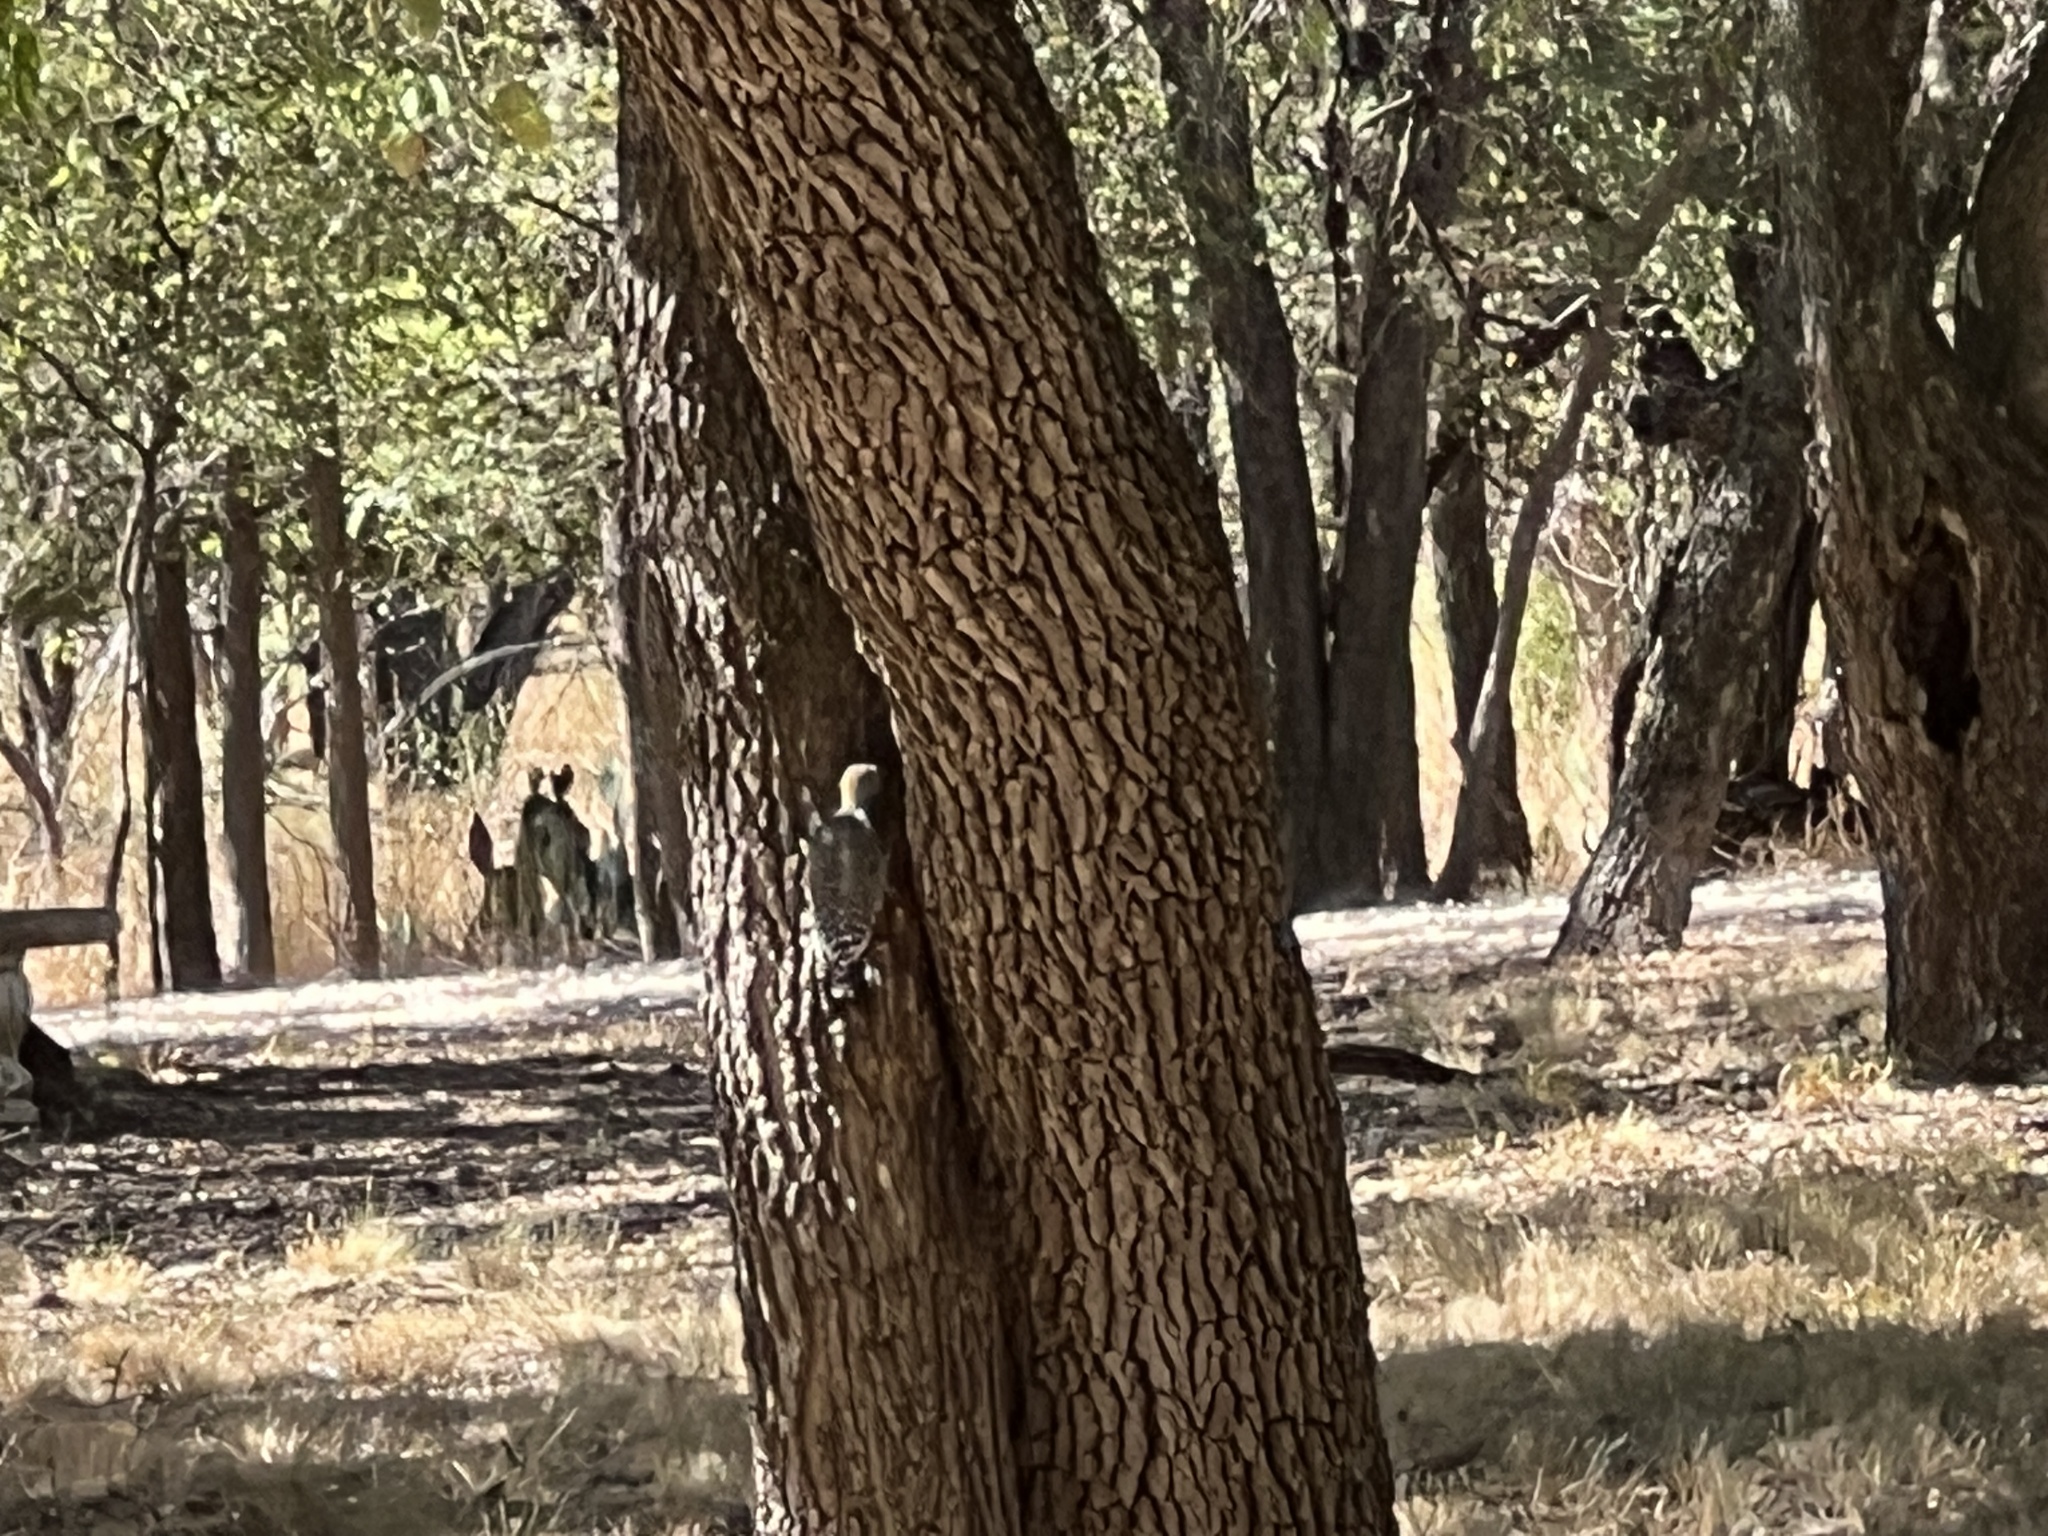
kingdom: Animalia
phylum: Chordata
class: Aves
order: Piciformes
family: Picidae
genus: Melanerpes
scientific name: Melanerpes aurifrons
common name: Golden-fronted woodpecker
